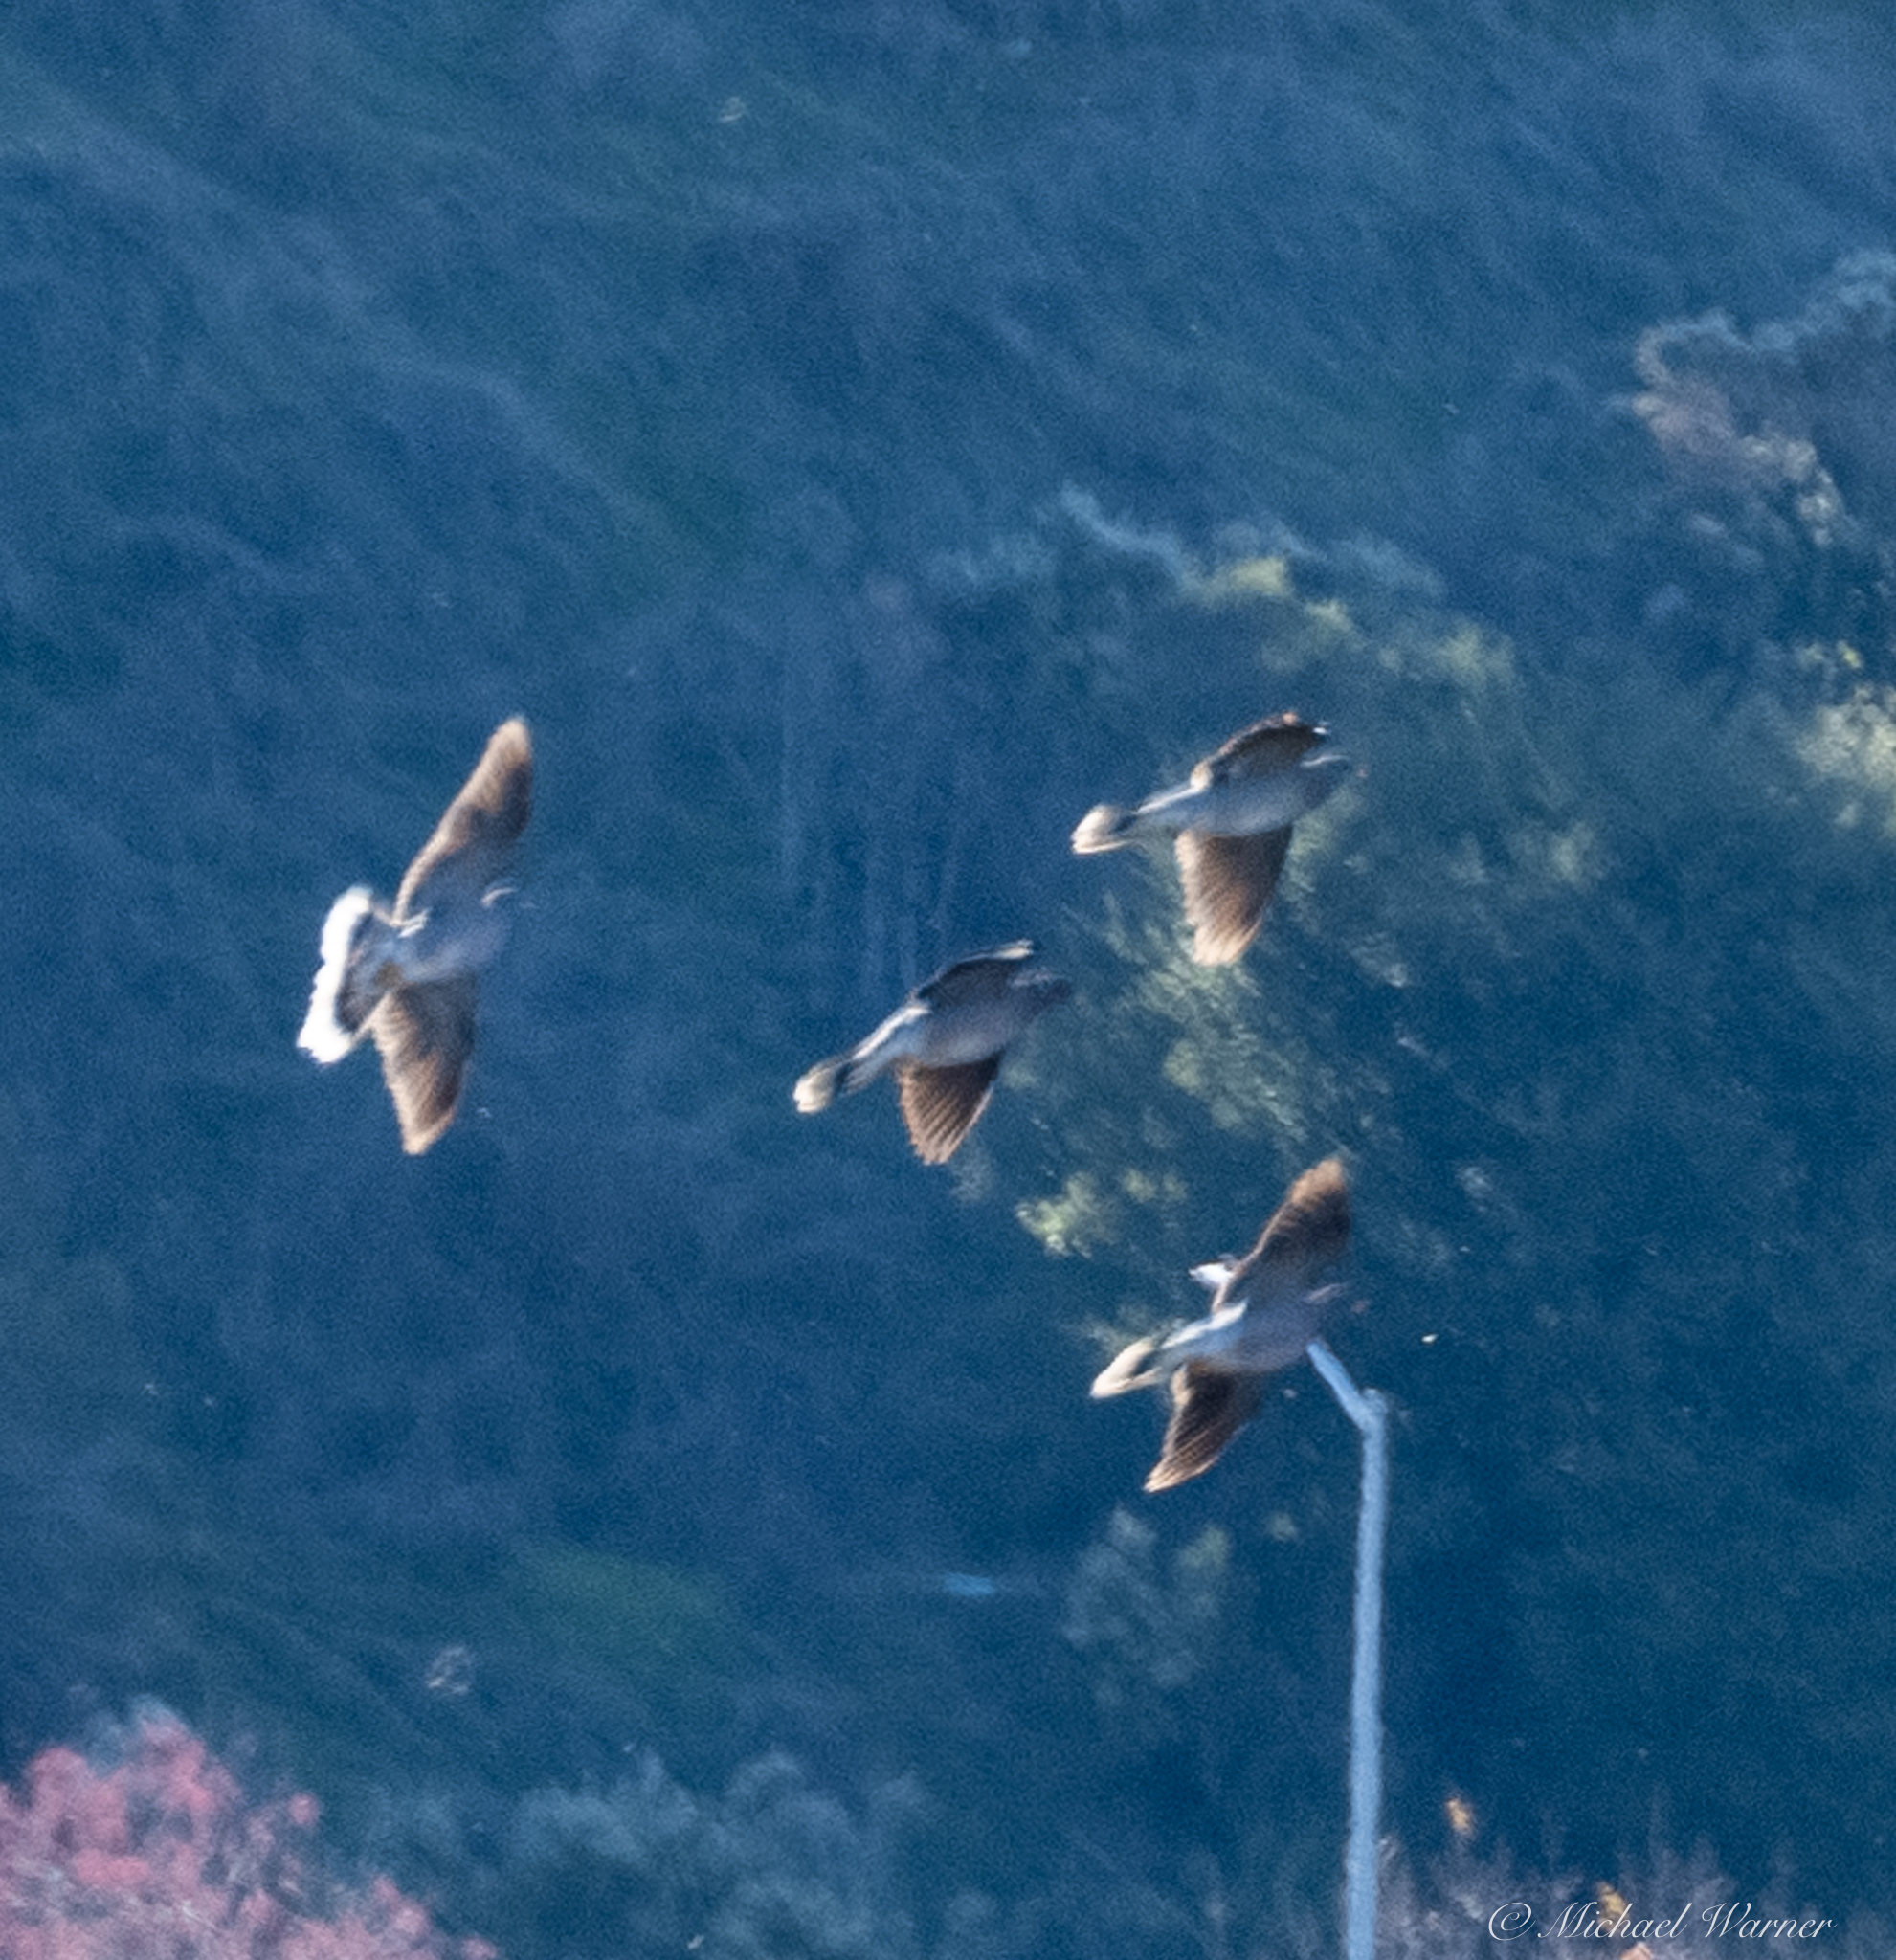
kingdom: Animalia
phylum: Chordata
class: Aves
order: Columbiformes
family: Columbidae
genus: Patagioenas
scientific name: Patagioenas fasciata
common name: Band-tailed pigeon
